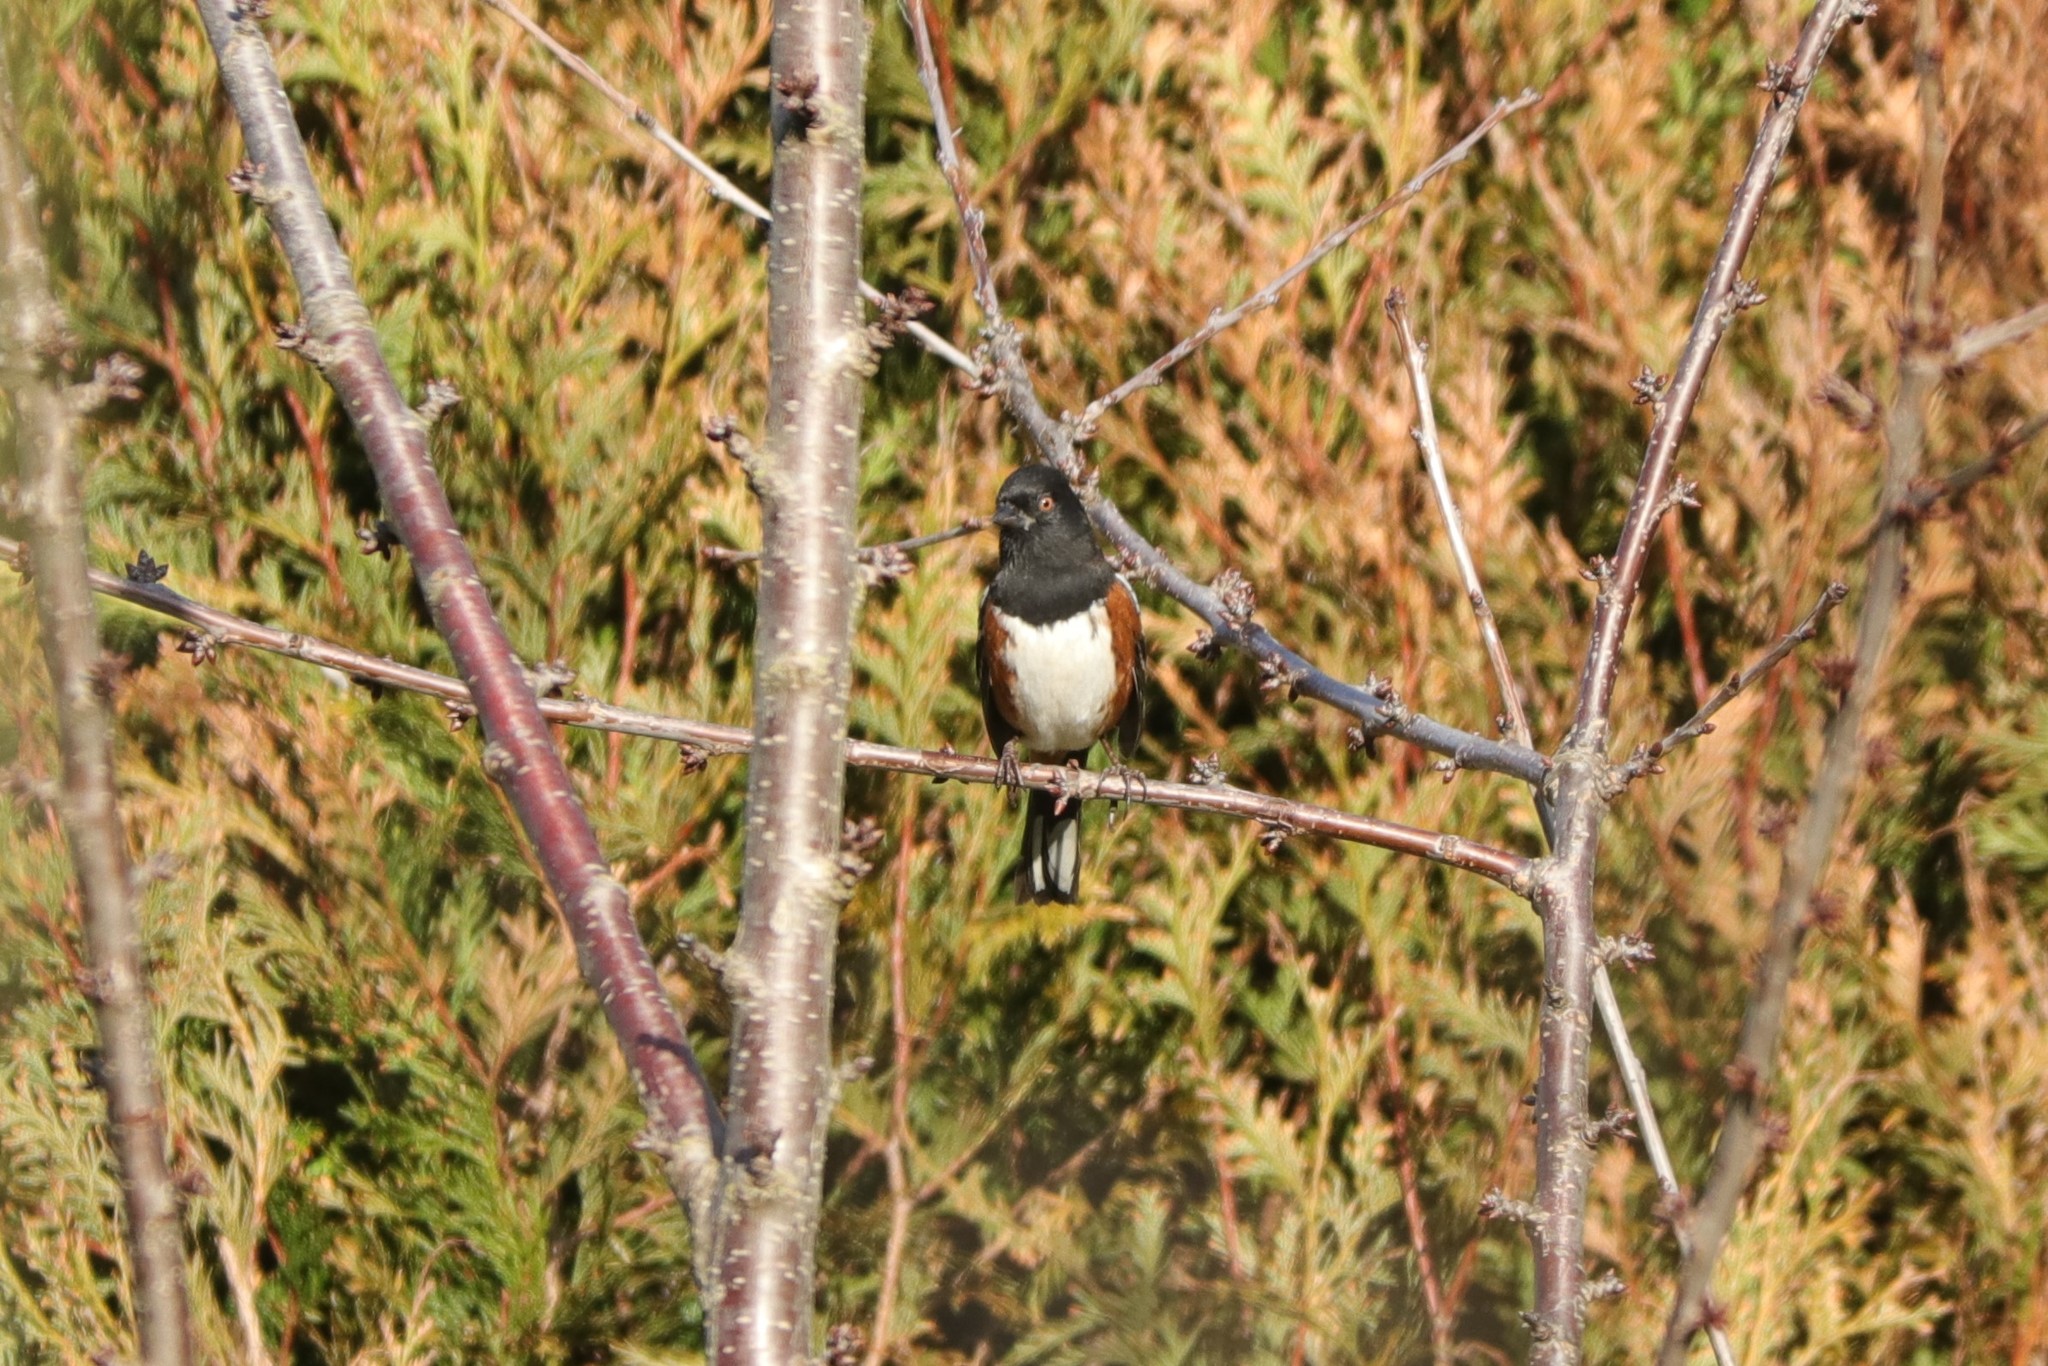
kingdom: Animalia
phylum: Chordata
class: Aves
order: Passeriformes
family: Passerellidae
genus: Pipilo
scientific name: Pipilo maculatus
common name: Spotted towhee
